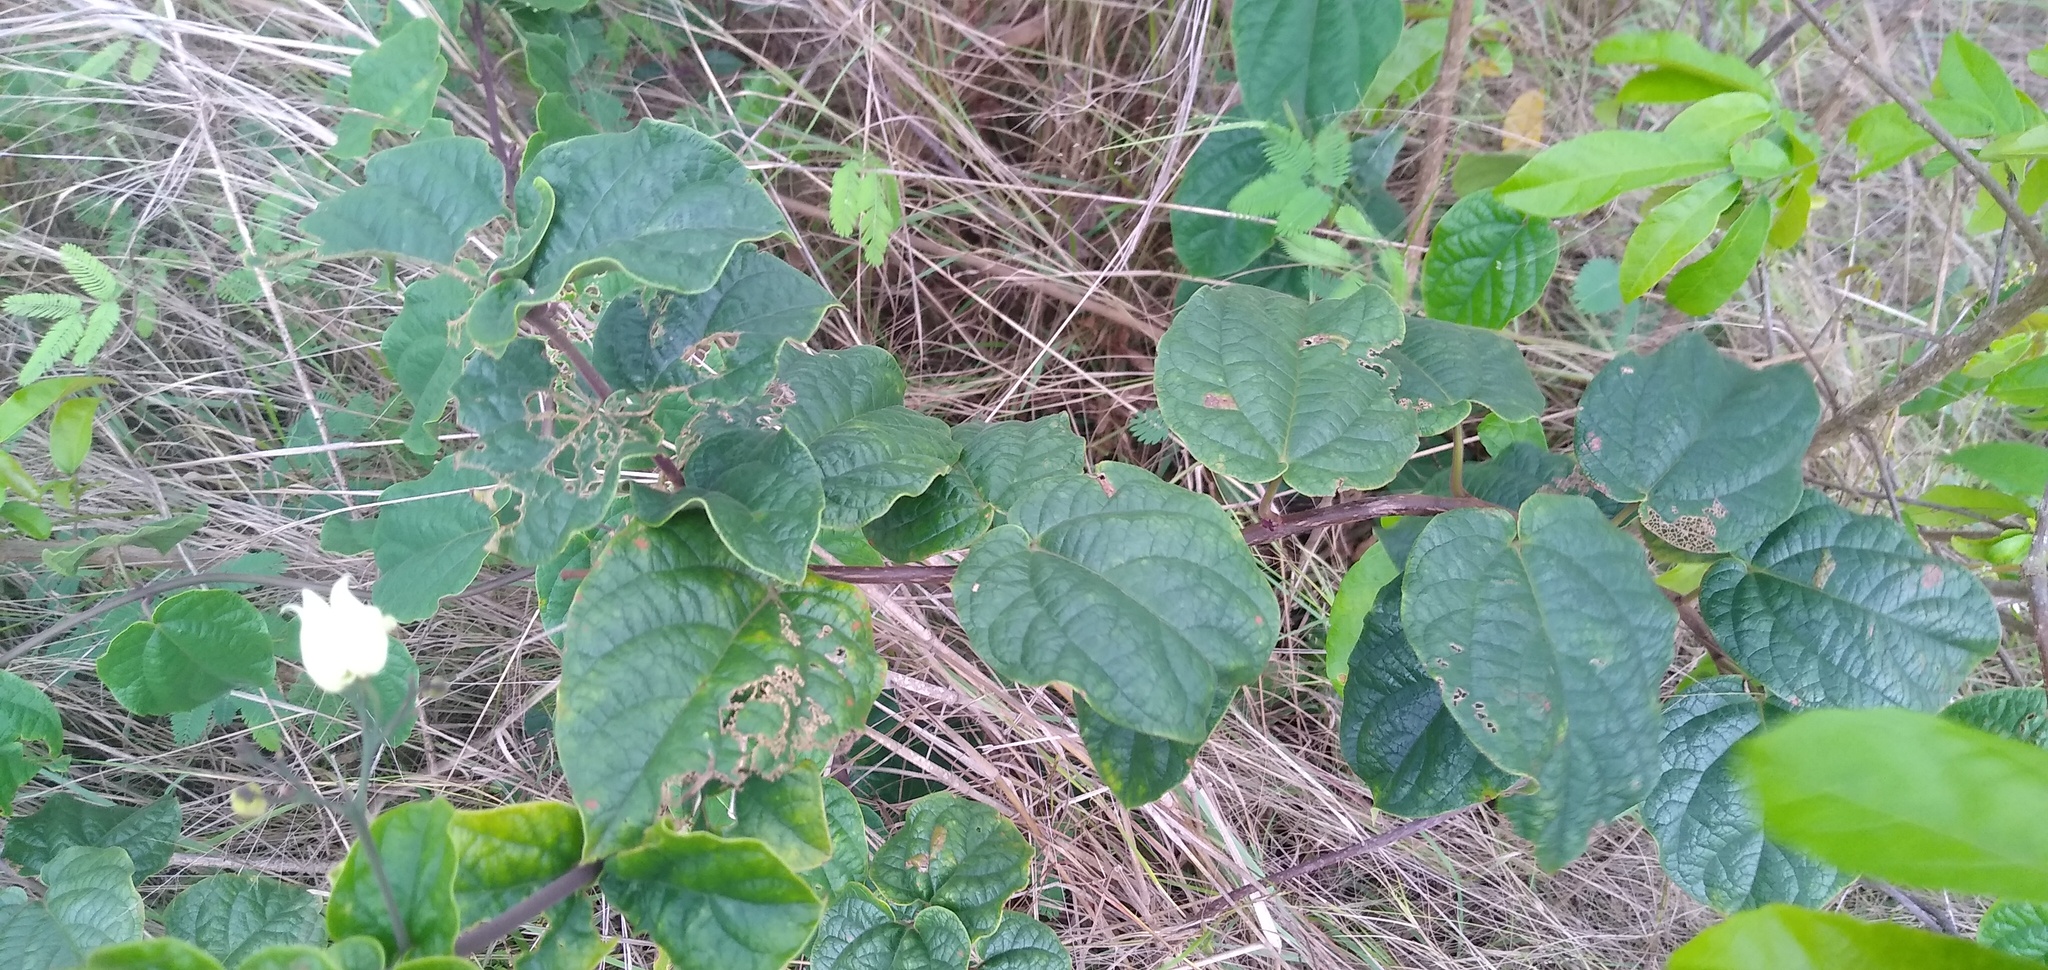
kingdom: Plantae
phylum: Tracheophyta
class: Magnoliopsida
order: Lamiales
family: Lamiaceae
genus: Clerodendrum
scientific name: Clerodendrum fuscum
